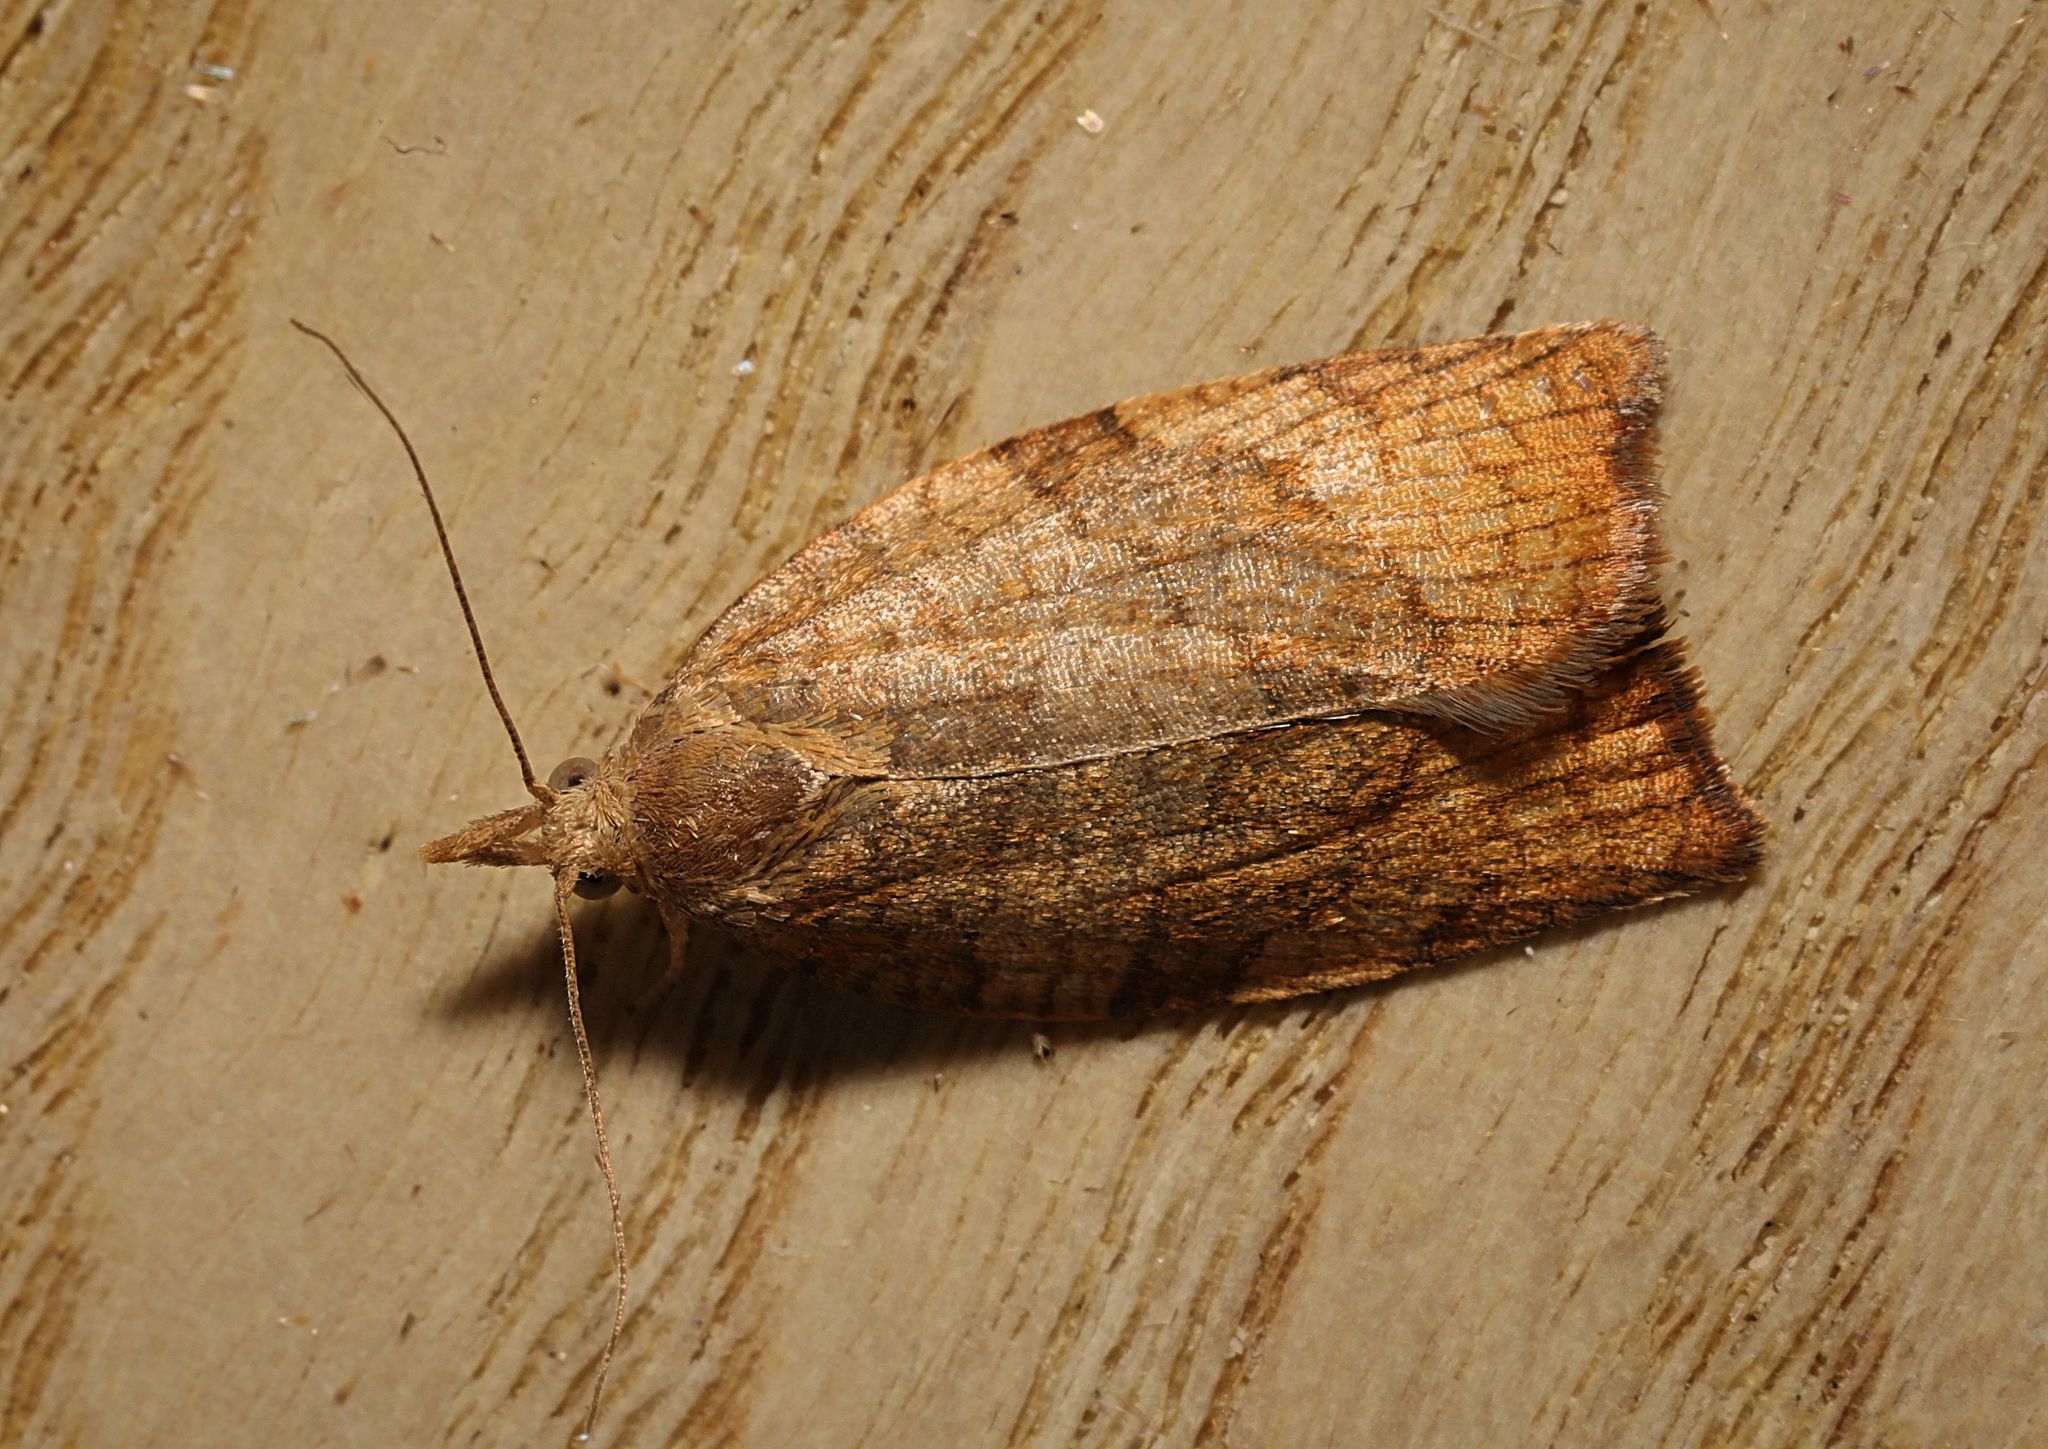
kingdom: Animalia
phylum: Arthropoda
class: Insecta
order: Lepidoptera
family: Tortricidae
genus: Pandemis
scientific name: Pandemis corylana
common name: Chequered fruit-tree tortrix
